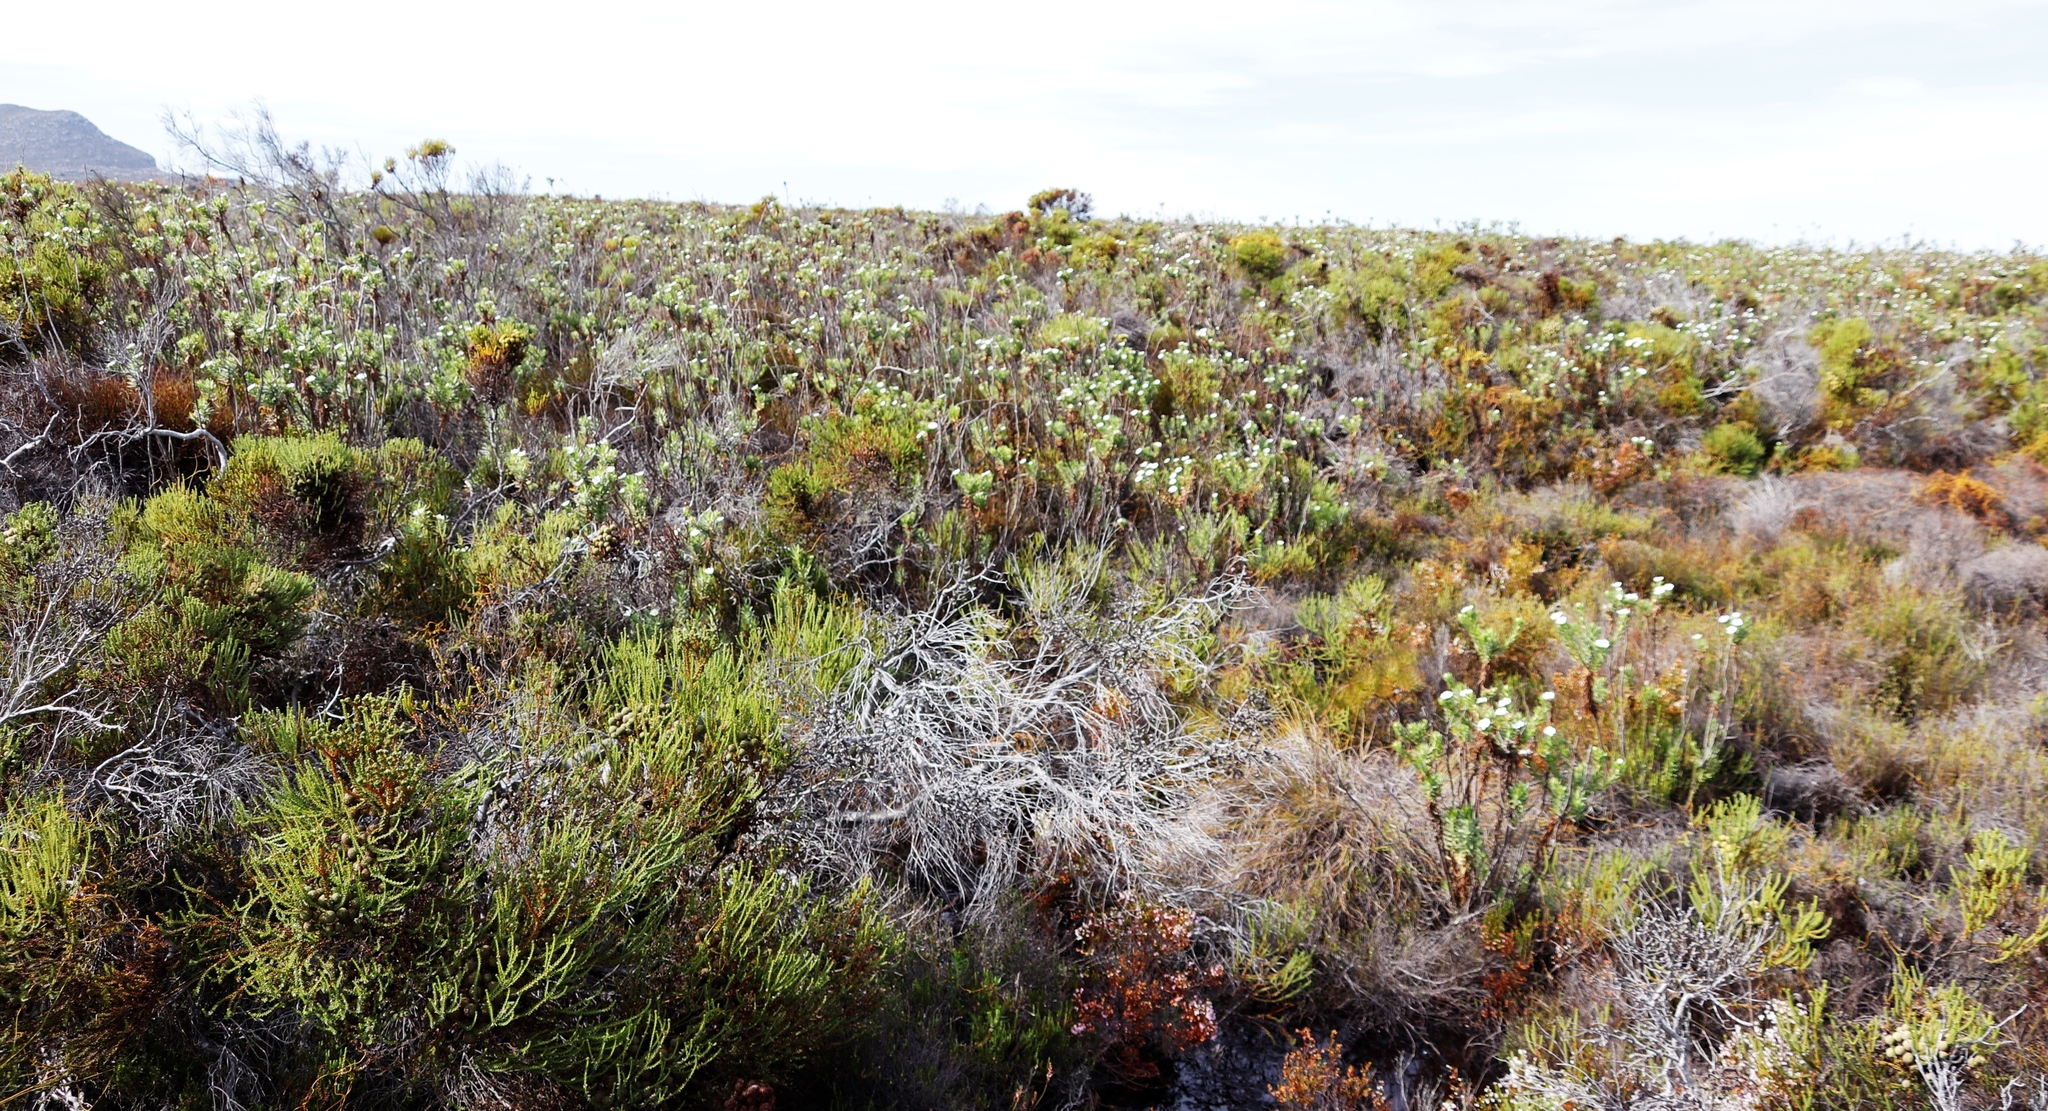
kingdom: Plantae
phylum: Tracheophyta
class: Magnoliopsida
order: Asterales
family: Asteraceae
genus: Osmitopsis
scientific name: Osmitopsis asteriscoides
